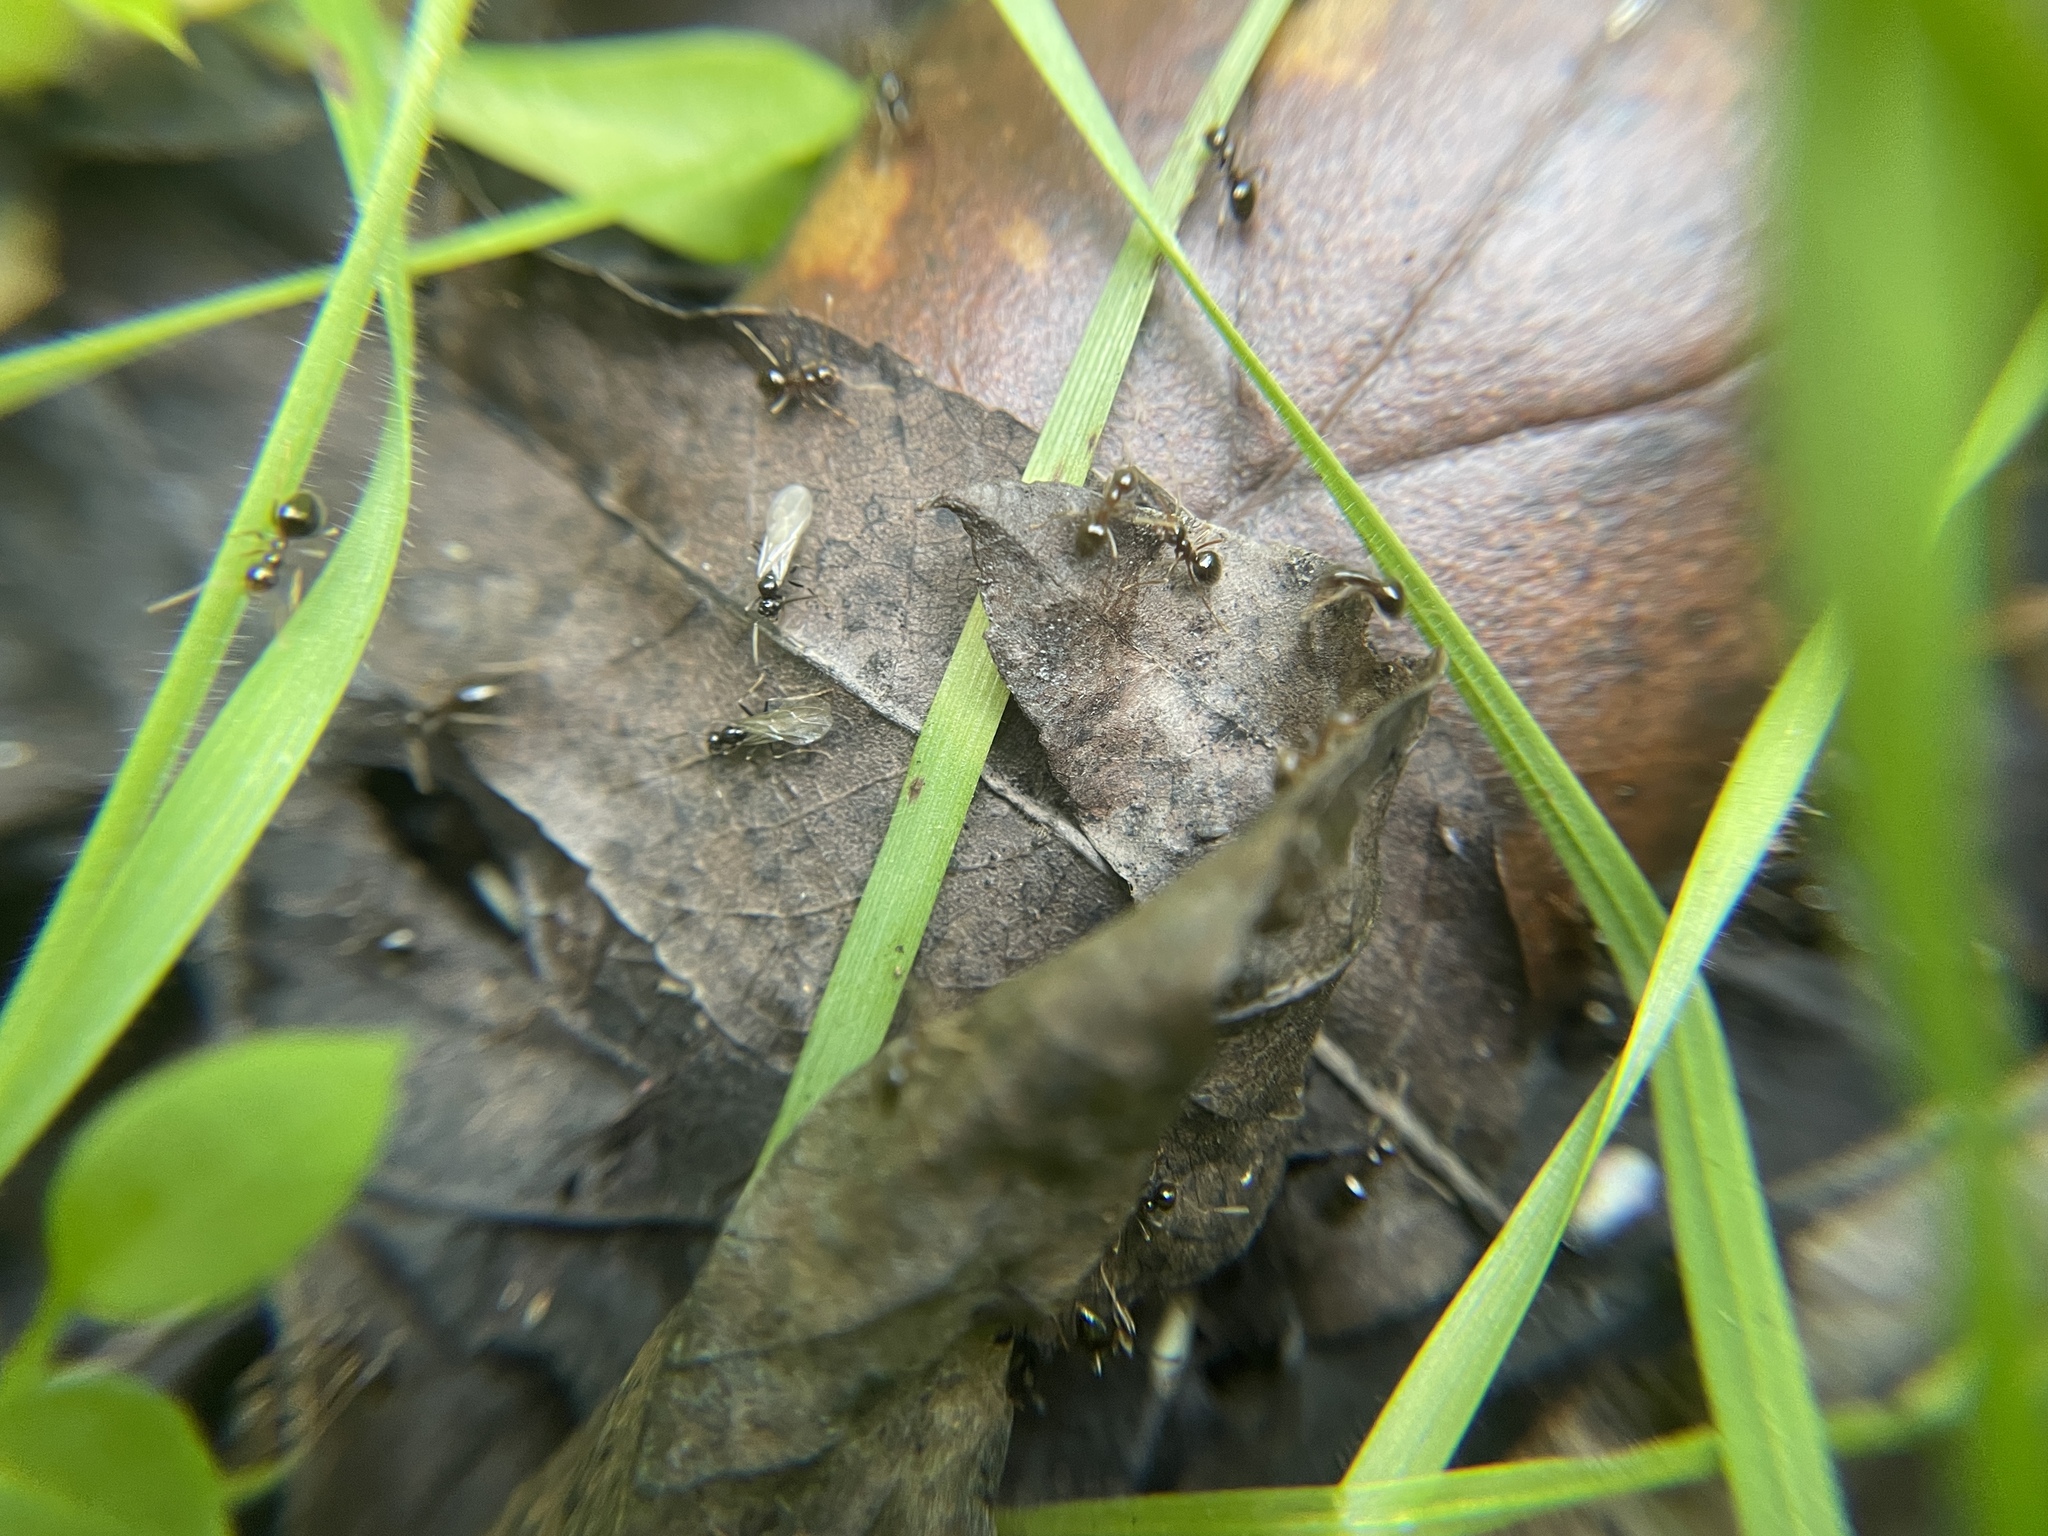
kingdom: Animalia
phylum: Arthropoda
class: Insecta
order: Hymenoptera
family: Formicidae
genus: Prenolepis
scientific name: Prenolepis imparis
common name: Small honey ant
